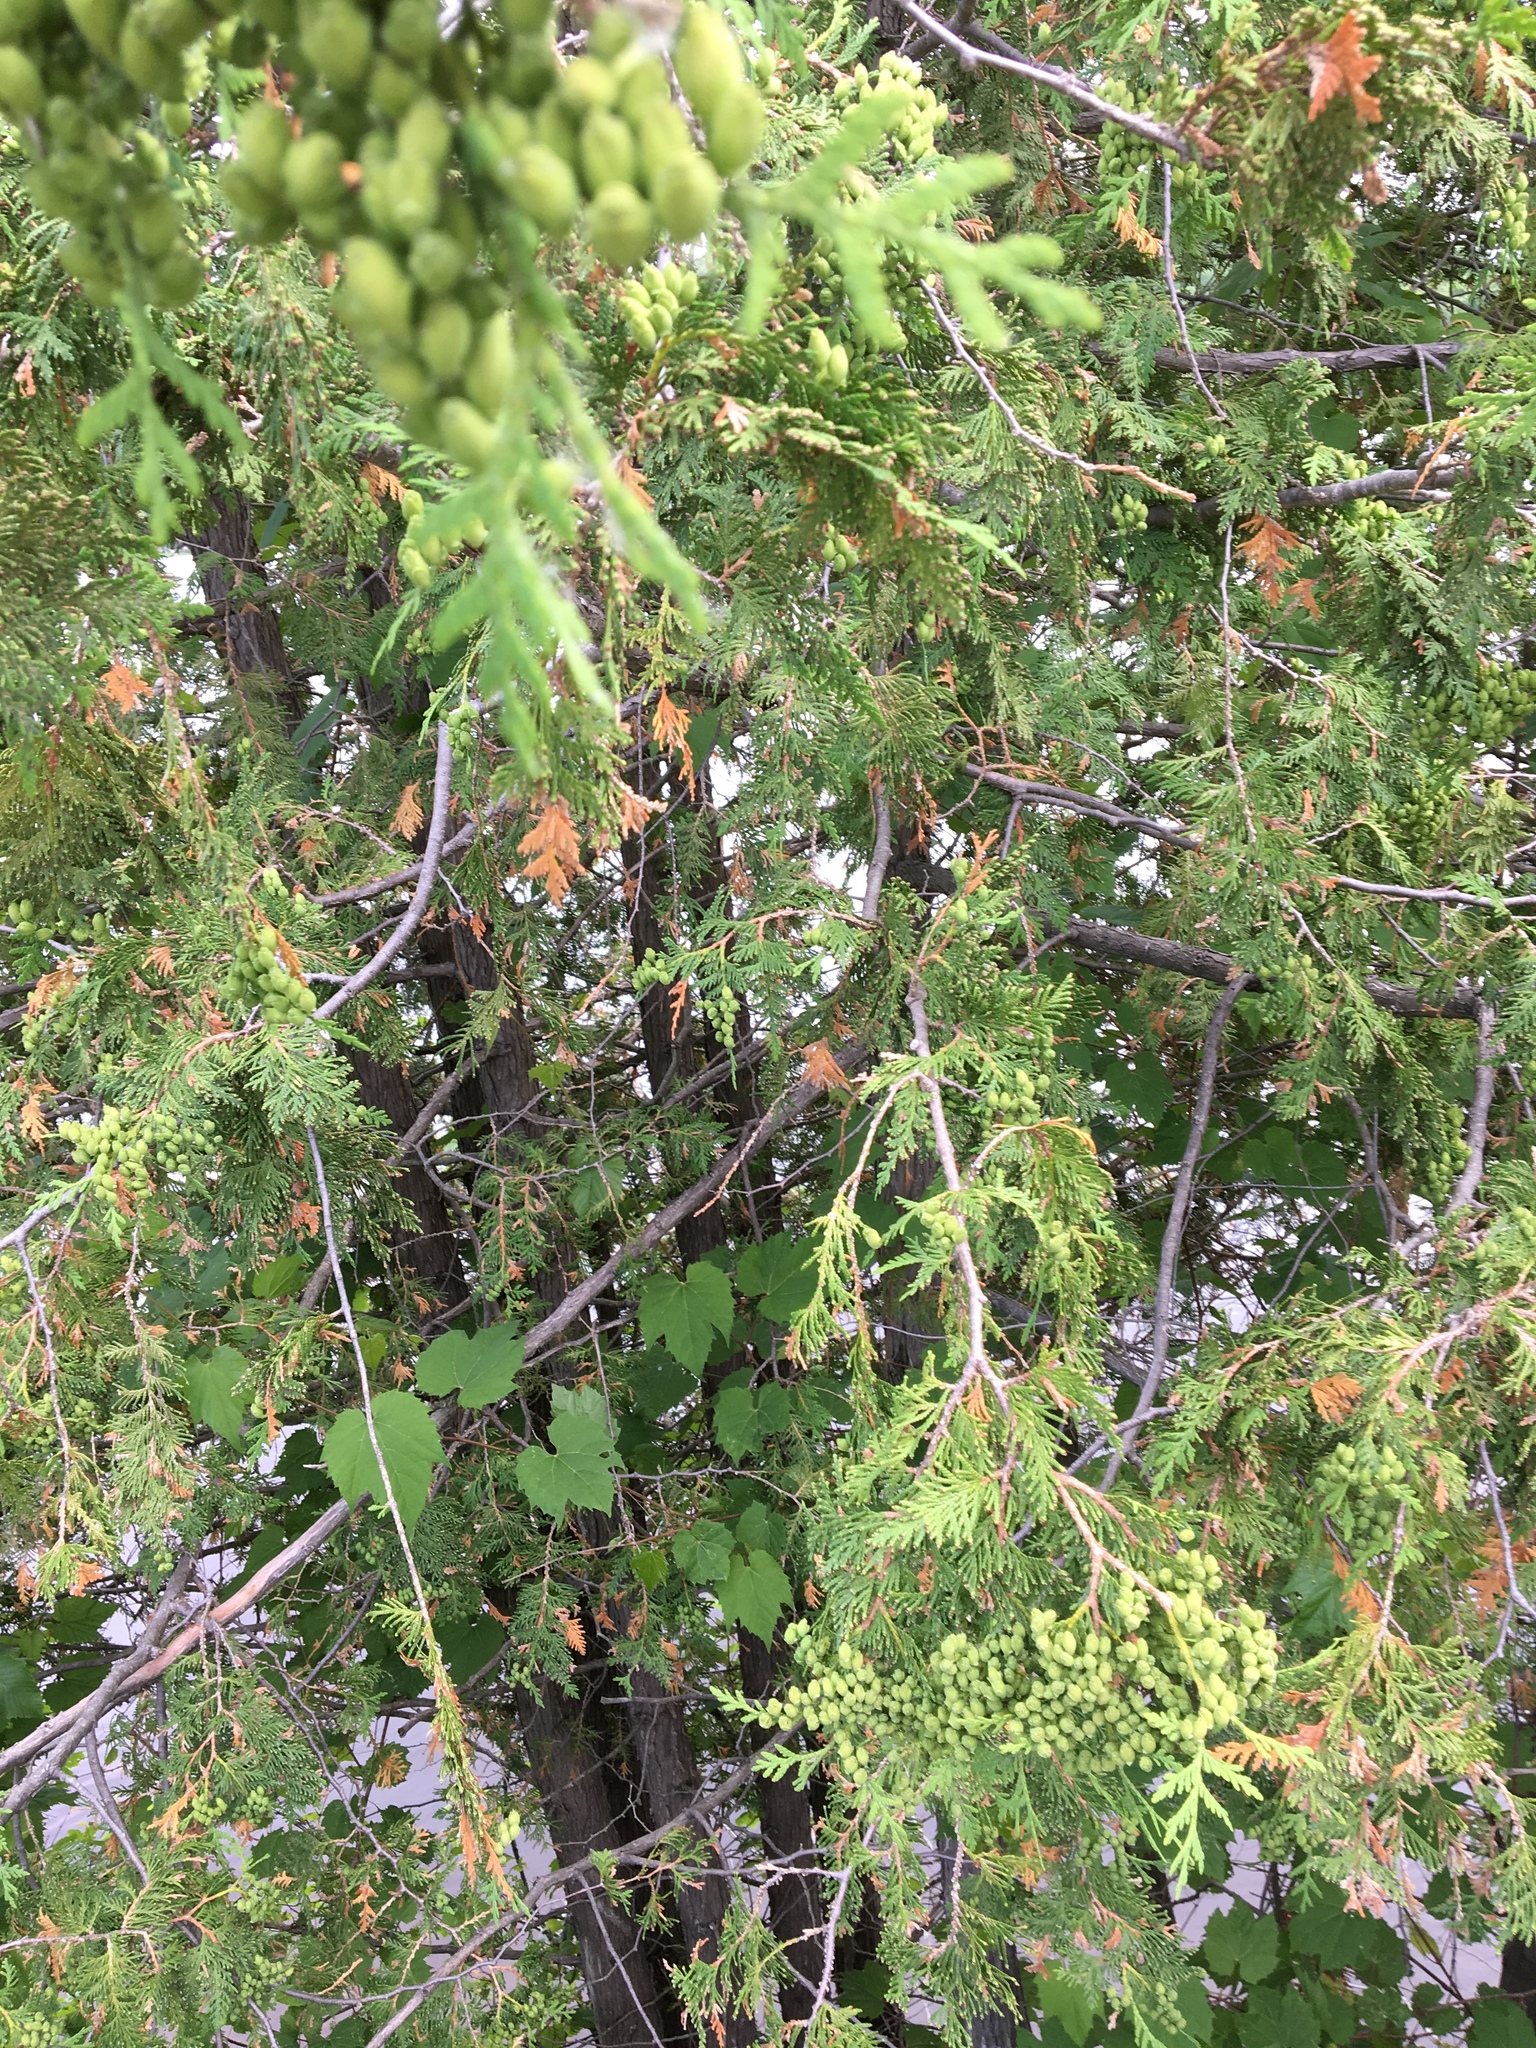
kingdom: Plantae
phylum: Tracheophyta
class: Pinopsida
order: Pinales
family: Cupressaceae
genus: Thuja
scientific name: Thuja occidentalis
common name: Northern white-cedar
